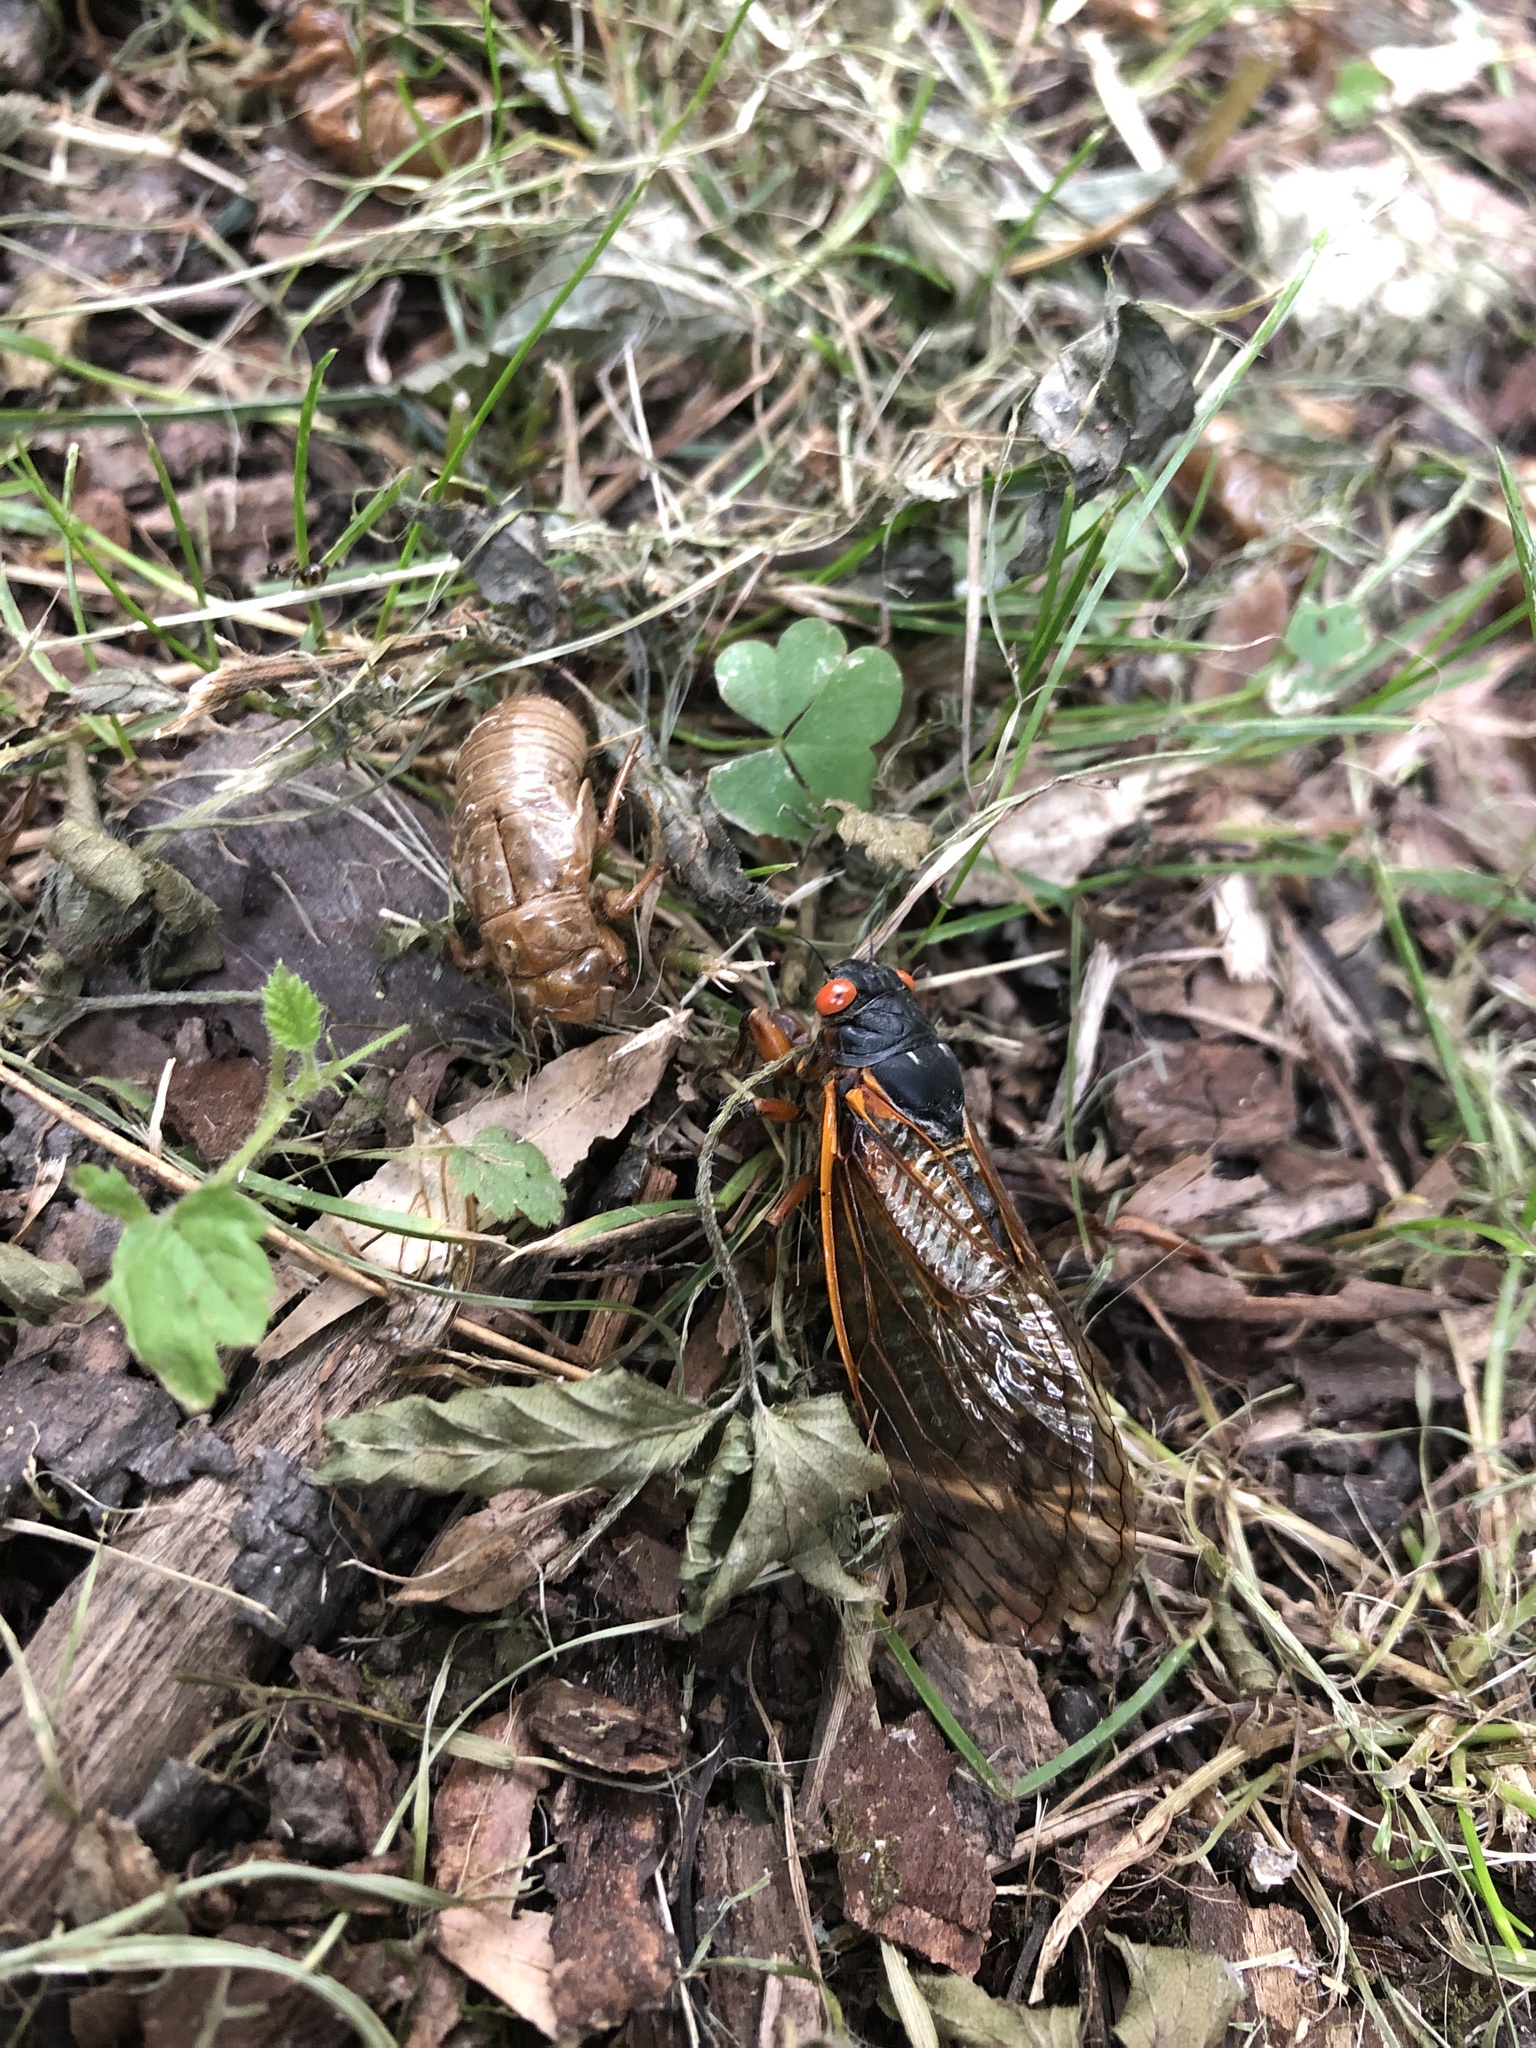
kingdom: Animalia
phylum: Arthropoda
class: Insecta
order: Hemiptera
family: Cicadidae
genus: Magicicada
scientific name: Magicicada septendecim
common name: Periodical cicada
